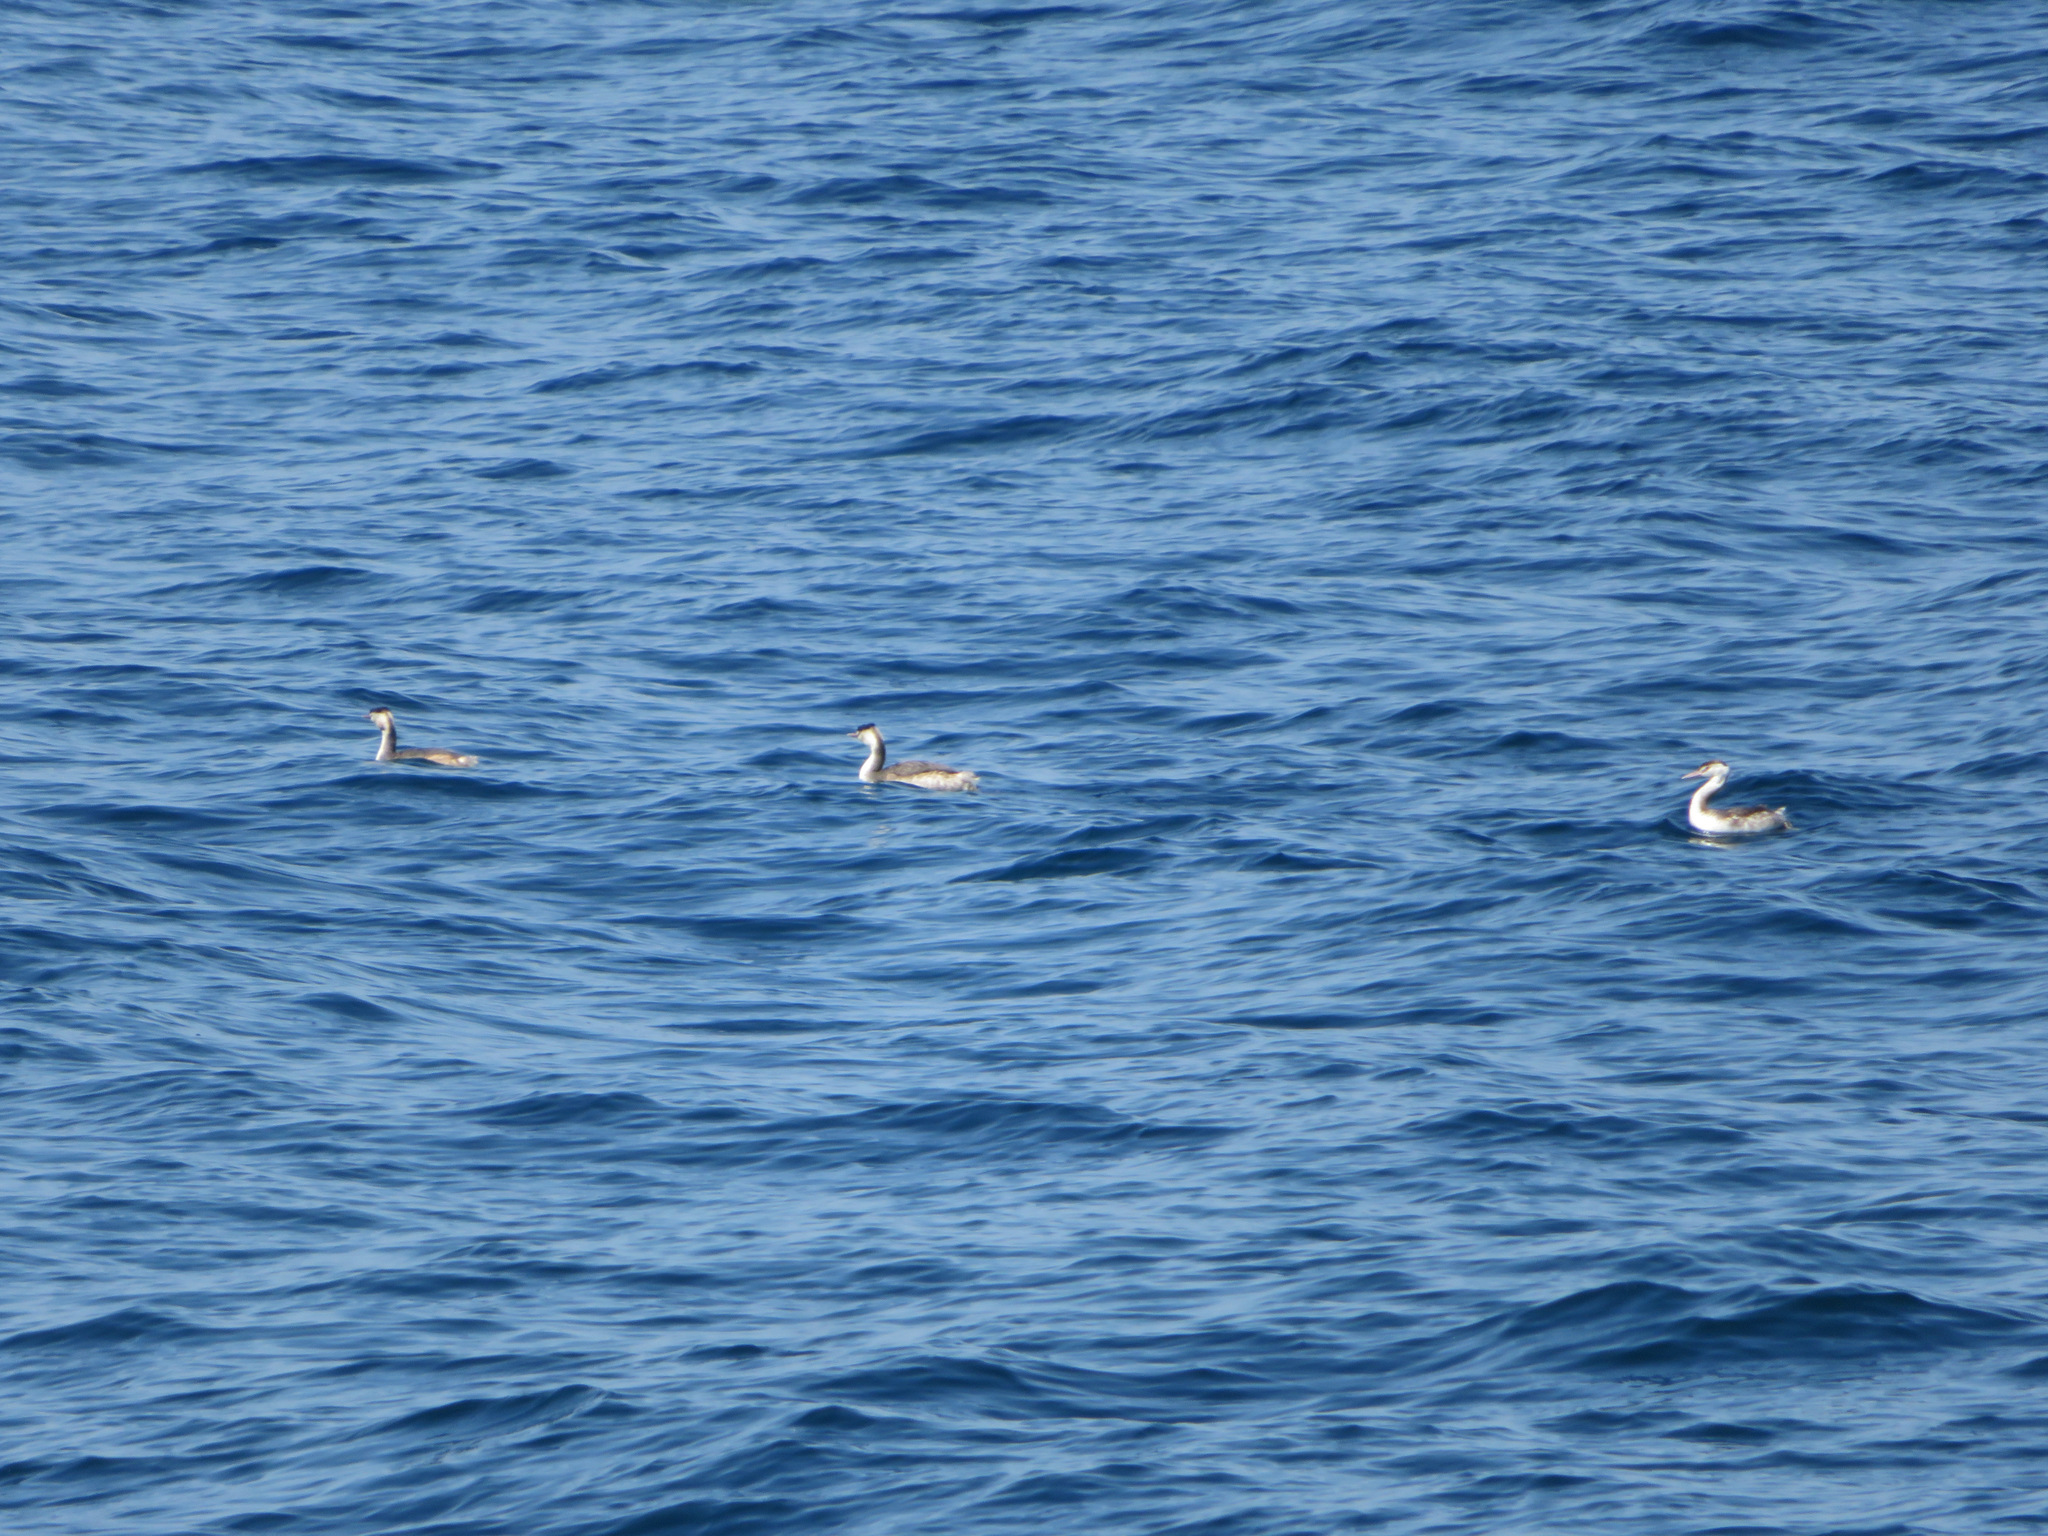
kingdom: Animalia
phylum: Chordata
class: Aves
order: Podicipediformes
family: Podicipedidae
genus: Podiceps
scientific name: Podiceps cristatus
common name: Great crested grebe
